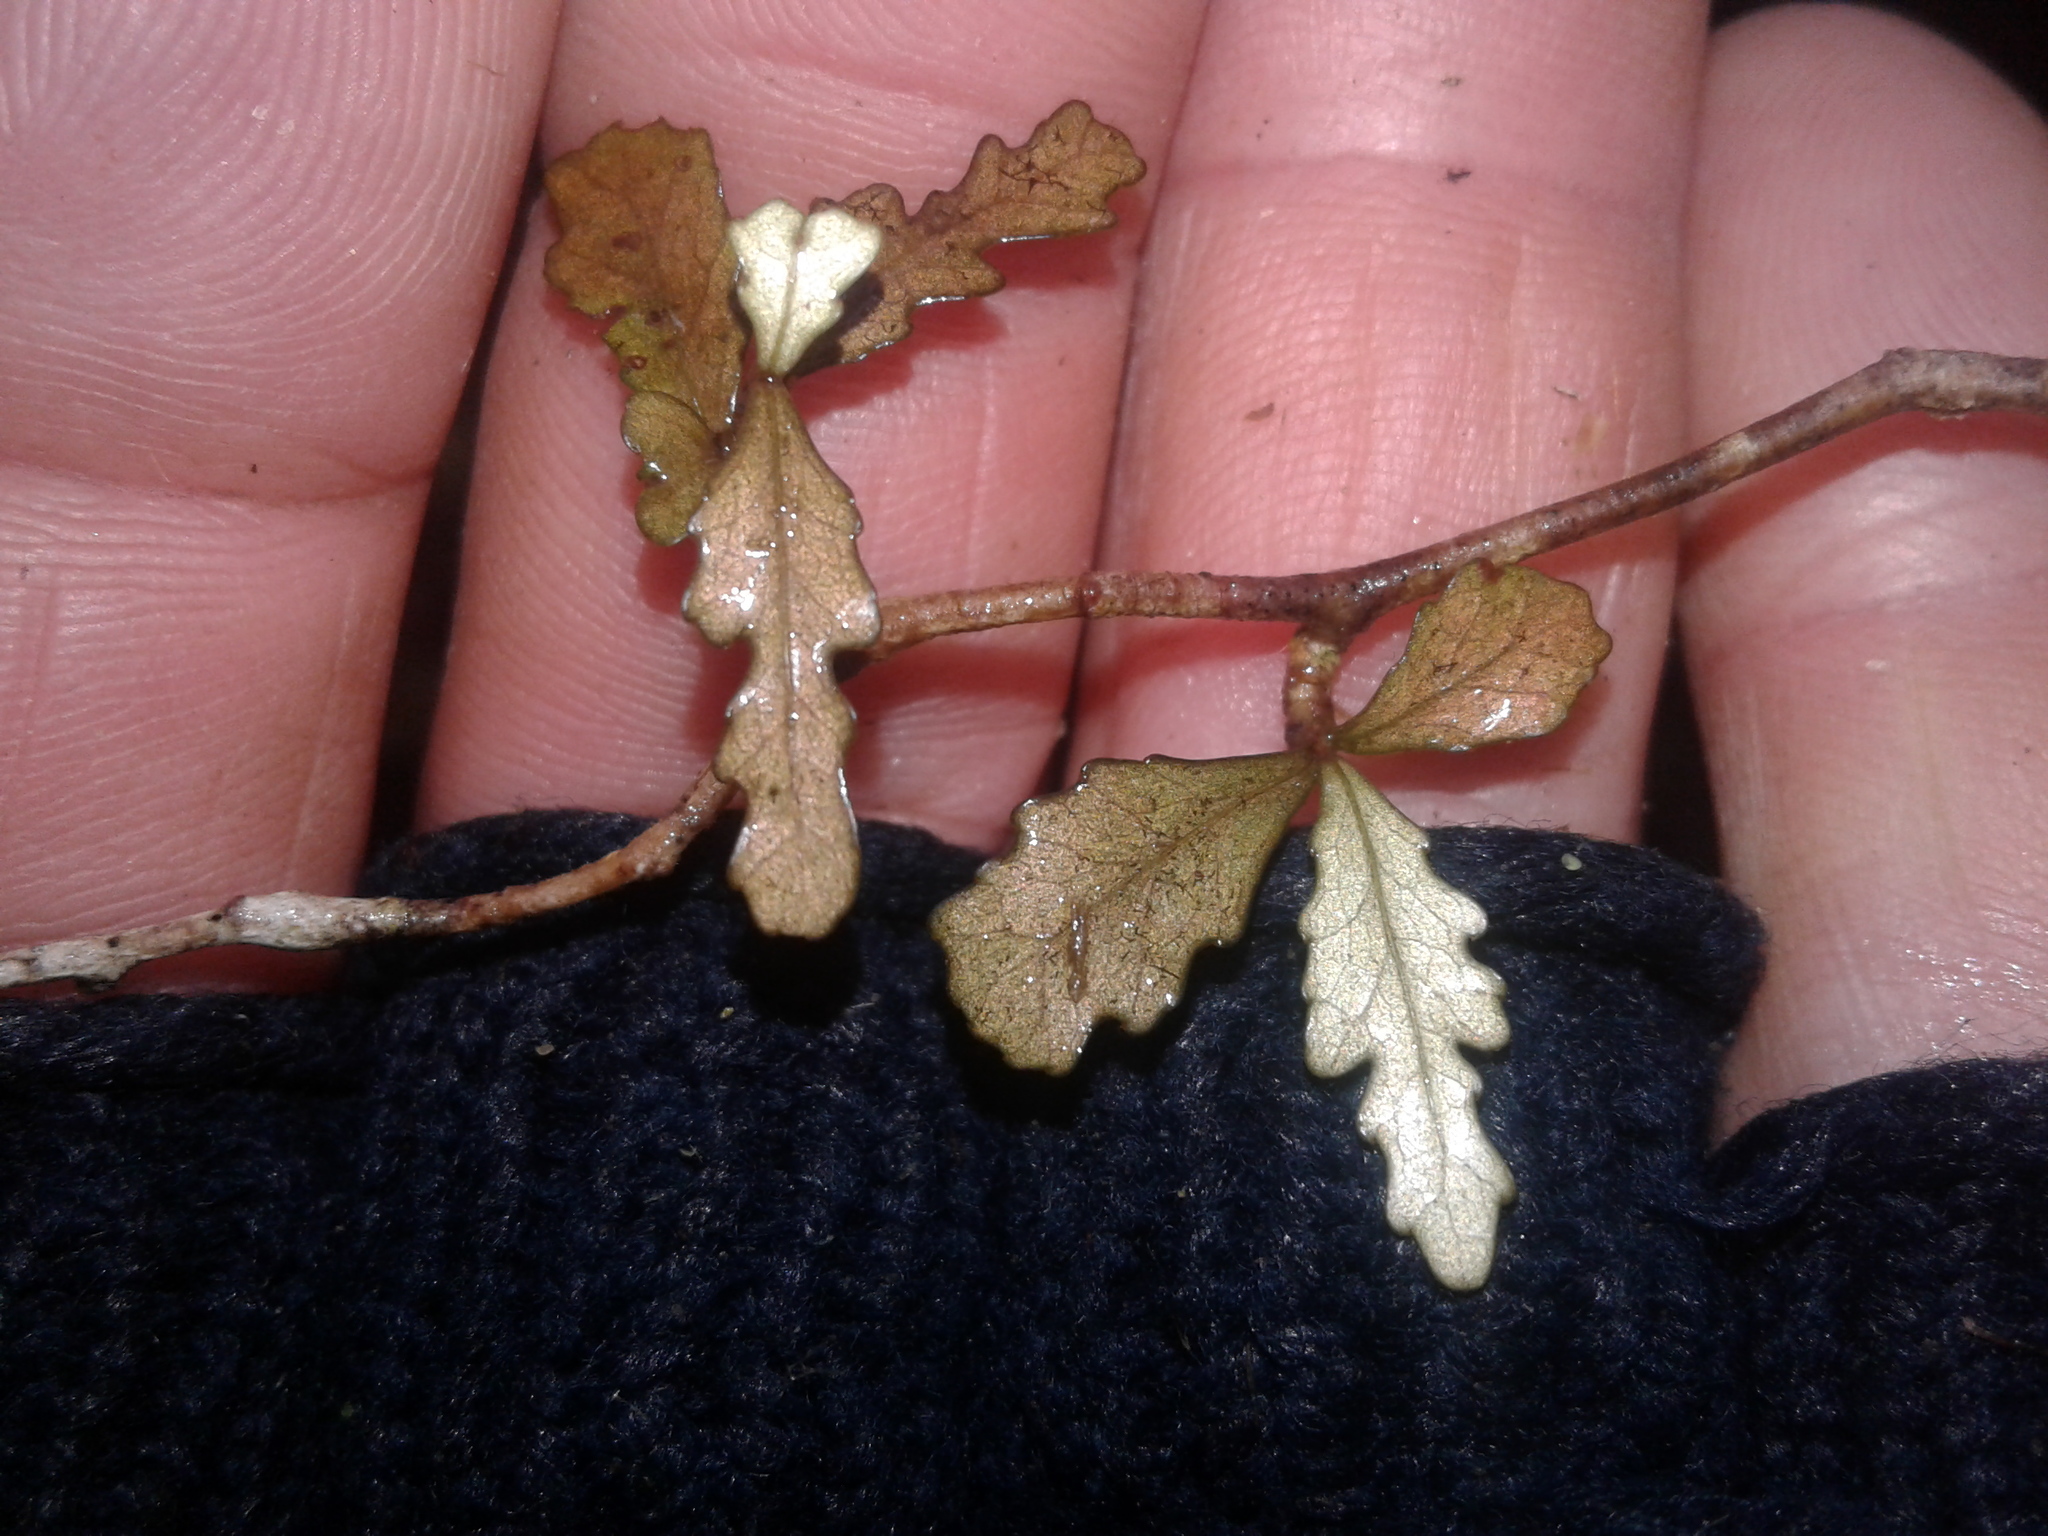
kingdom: Plantae
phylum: Tracheophyta
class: Magnoliopsida
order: Oxalidales
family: Elaeocarpaceae
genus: Elaeocarpus
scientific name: Elaeocarpus hookerianus
